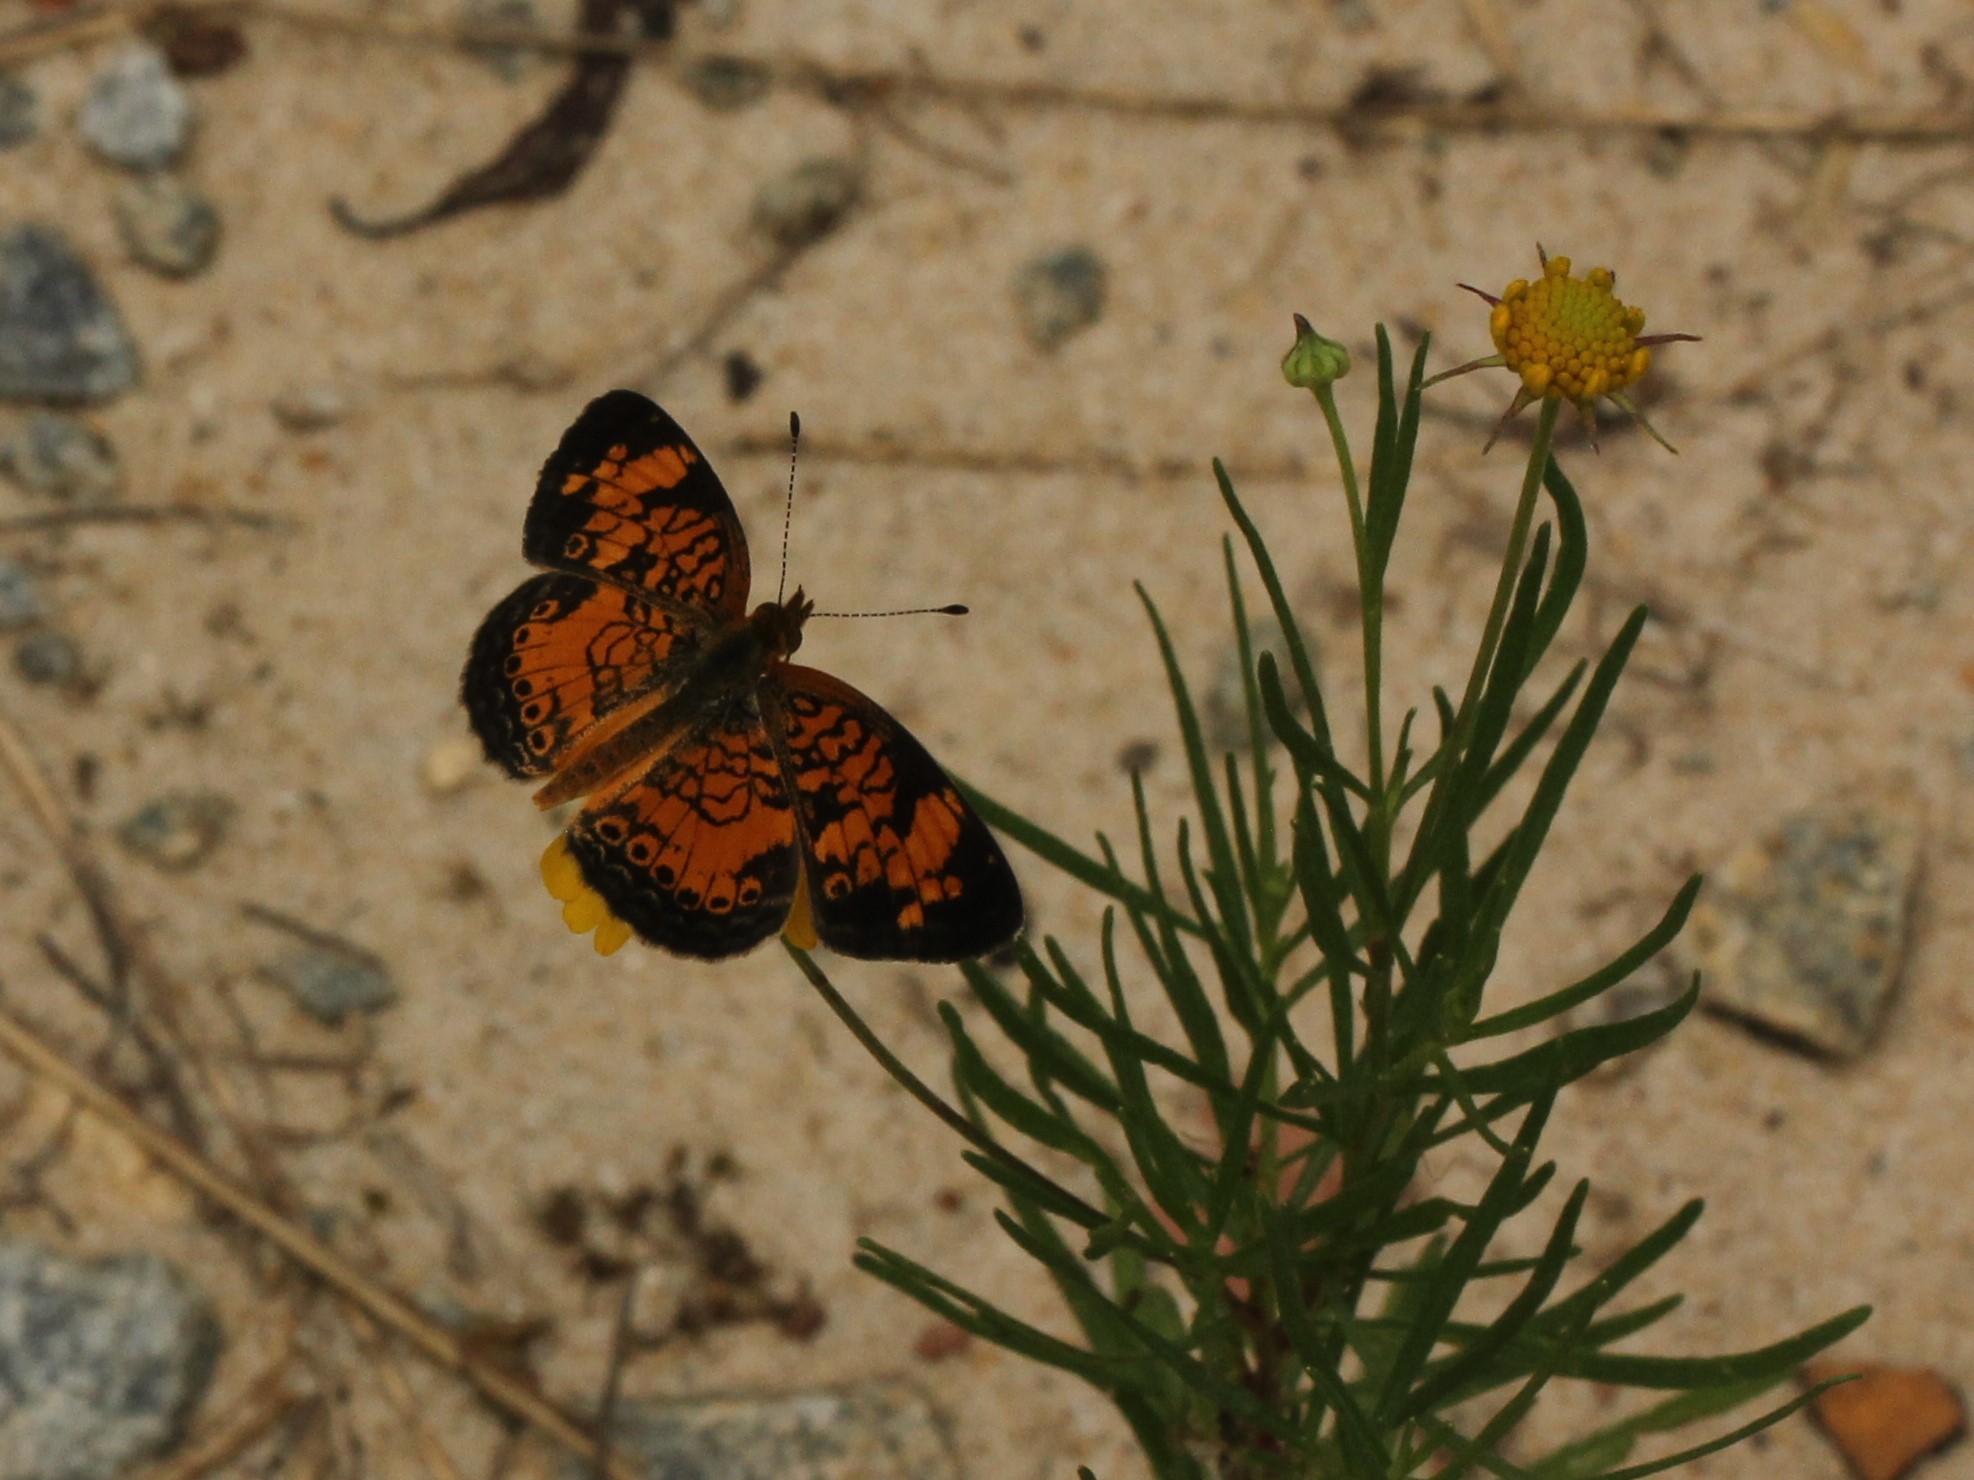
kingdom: Animalia
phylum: Arthropoda
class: Insecta
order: Lepidoptera
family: Nymphalidae
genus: Phyciodes
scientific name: Phyciodes tharos
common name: Pearl crescent
